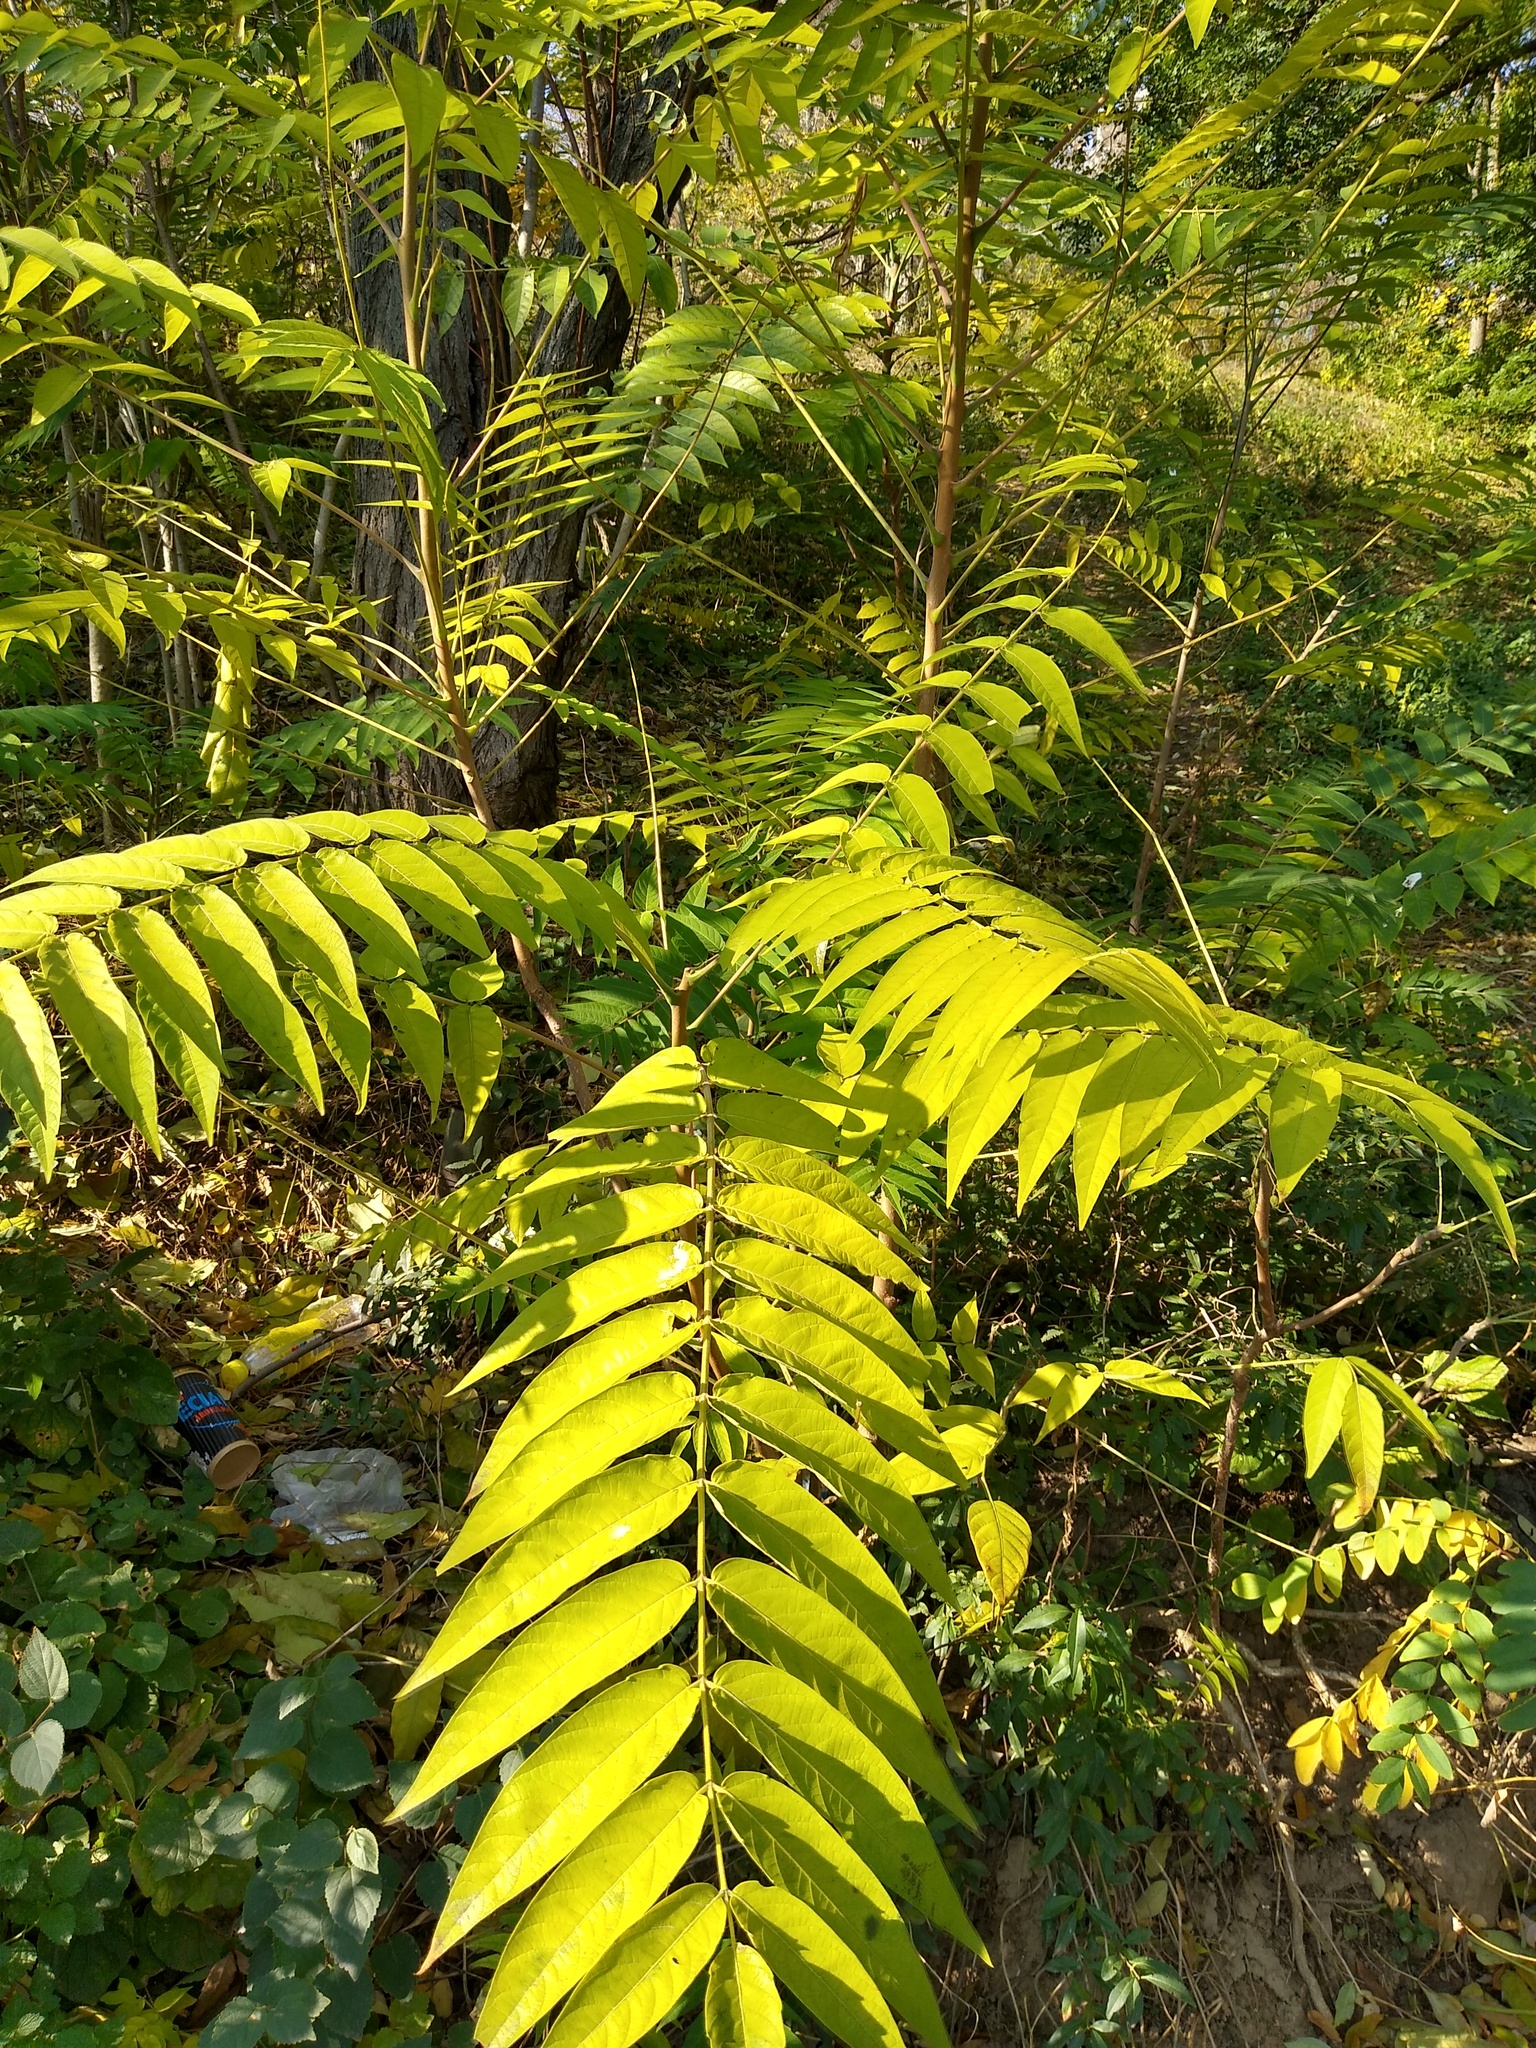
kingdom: Plantae
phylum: Tracheophyta
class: Magnoliopsida
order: Sapindales
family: Simaroubaceae
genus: Ailanthus
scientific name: Ailanthus altissima
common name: Tree-of-heaven
